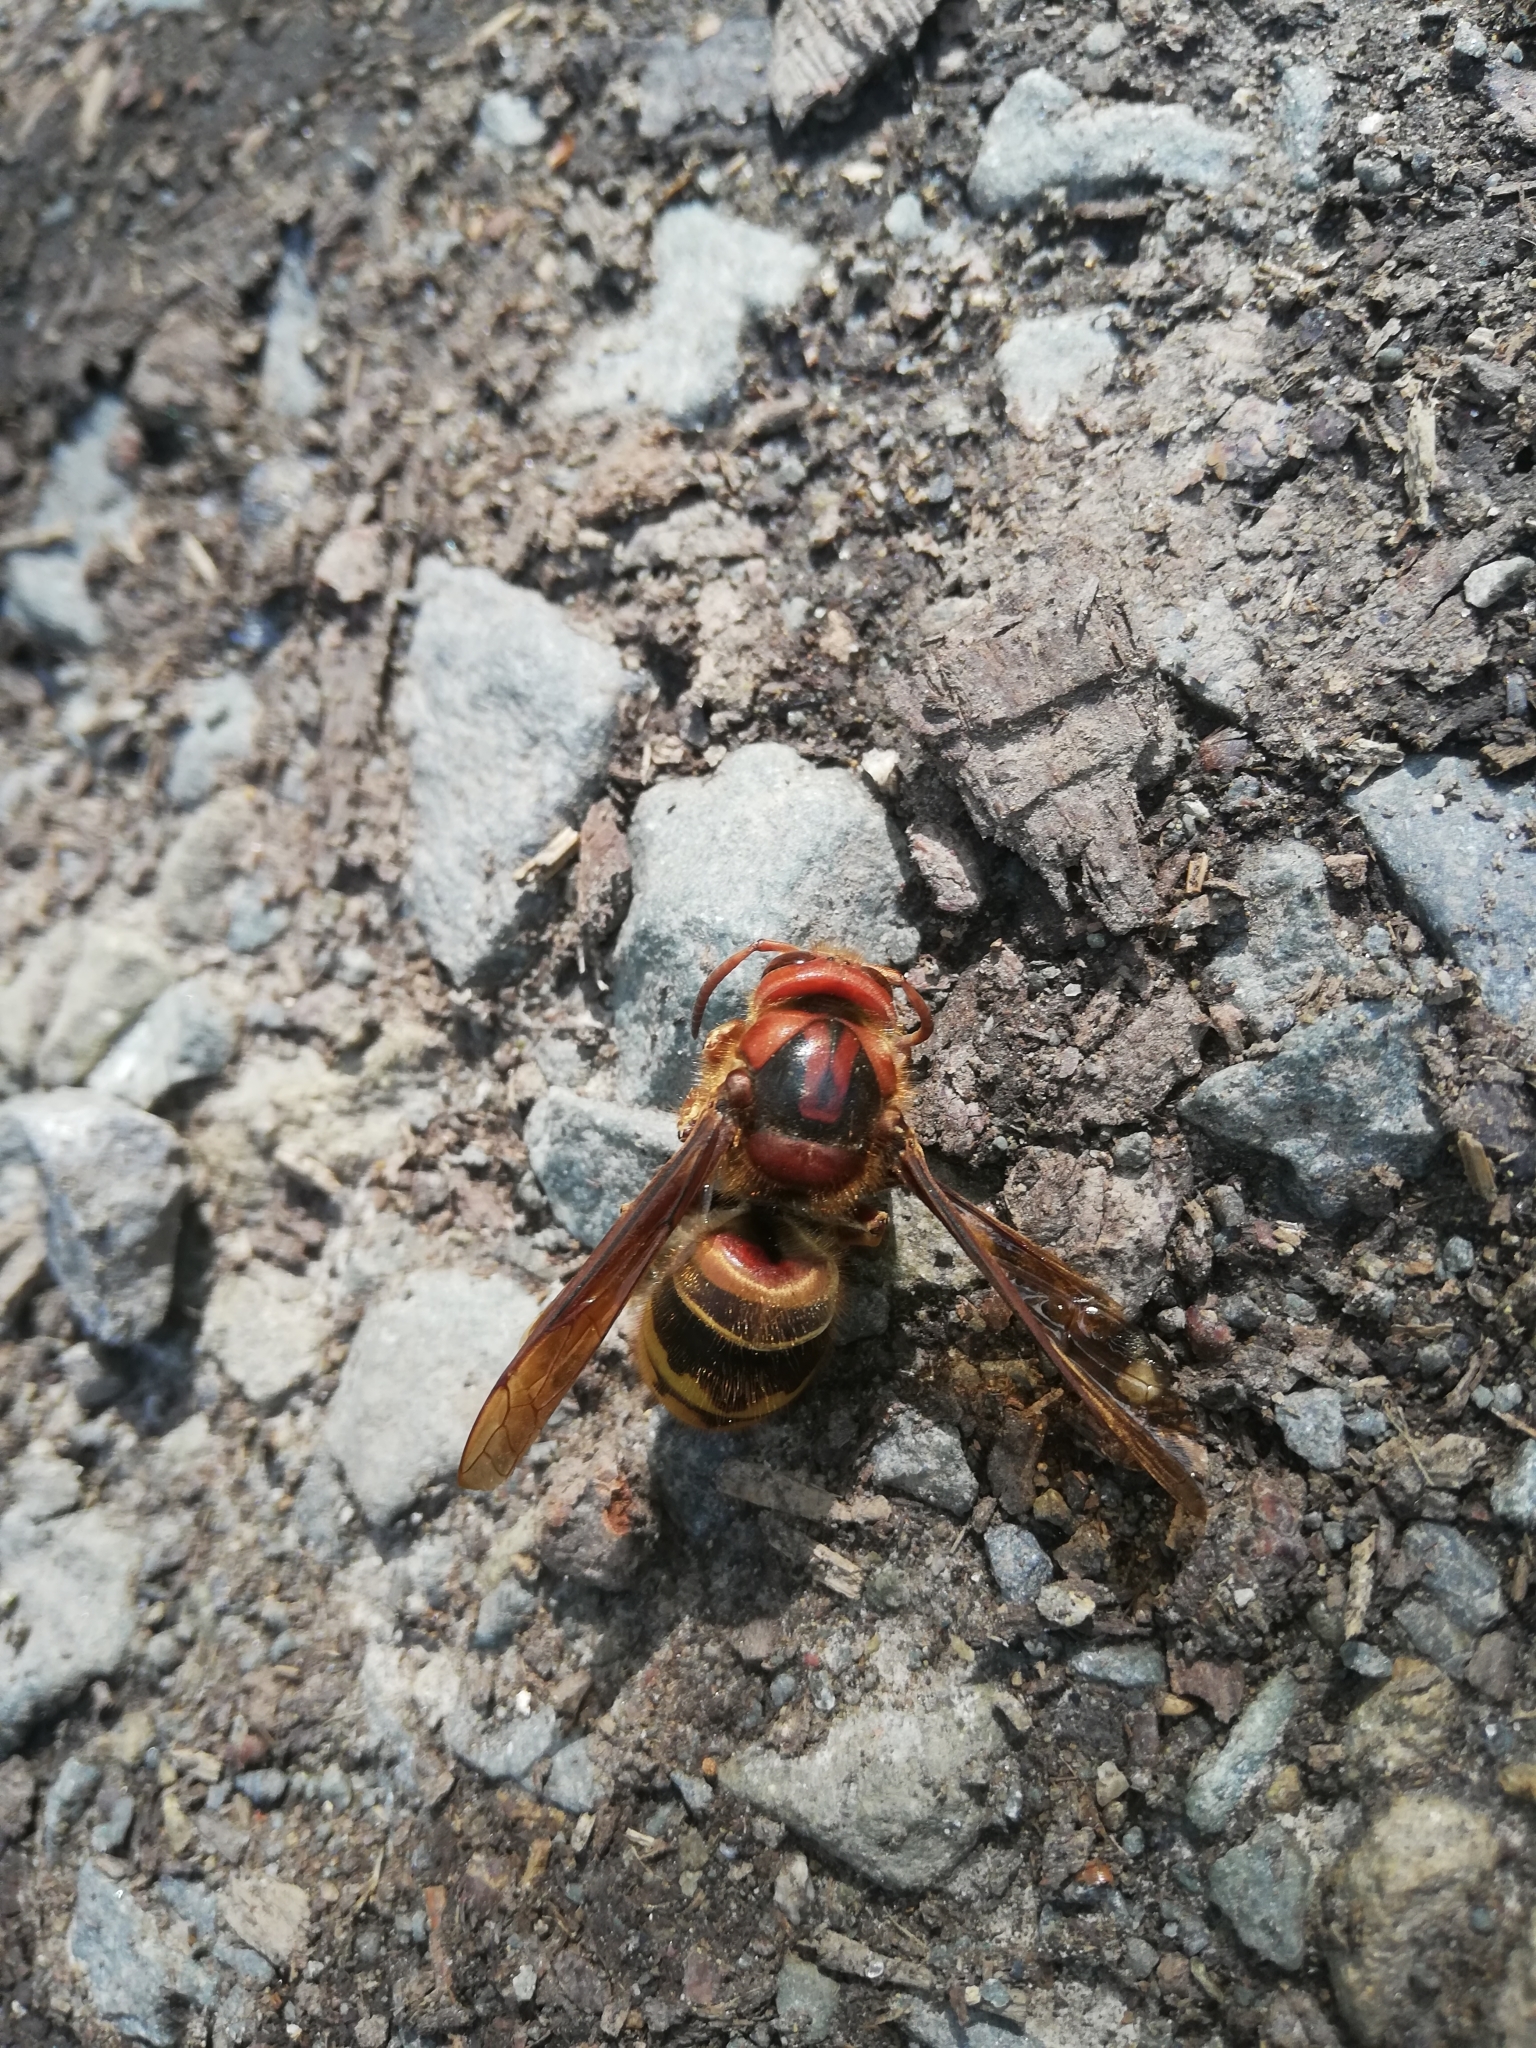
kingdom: Animalia
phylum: Arthropoda
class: Insecta
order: Hymenoptera
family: Vespidae
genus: Vespa
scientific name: Vespa crabro
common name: Hornet
